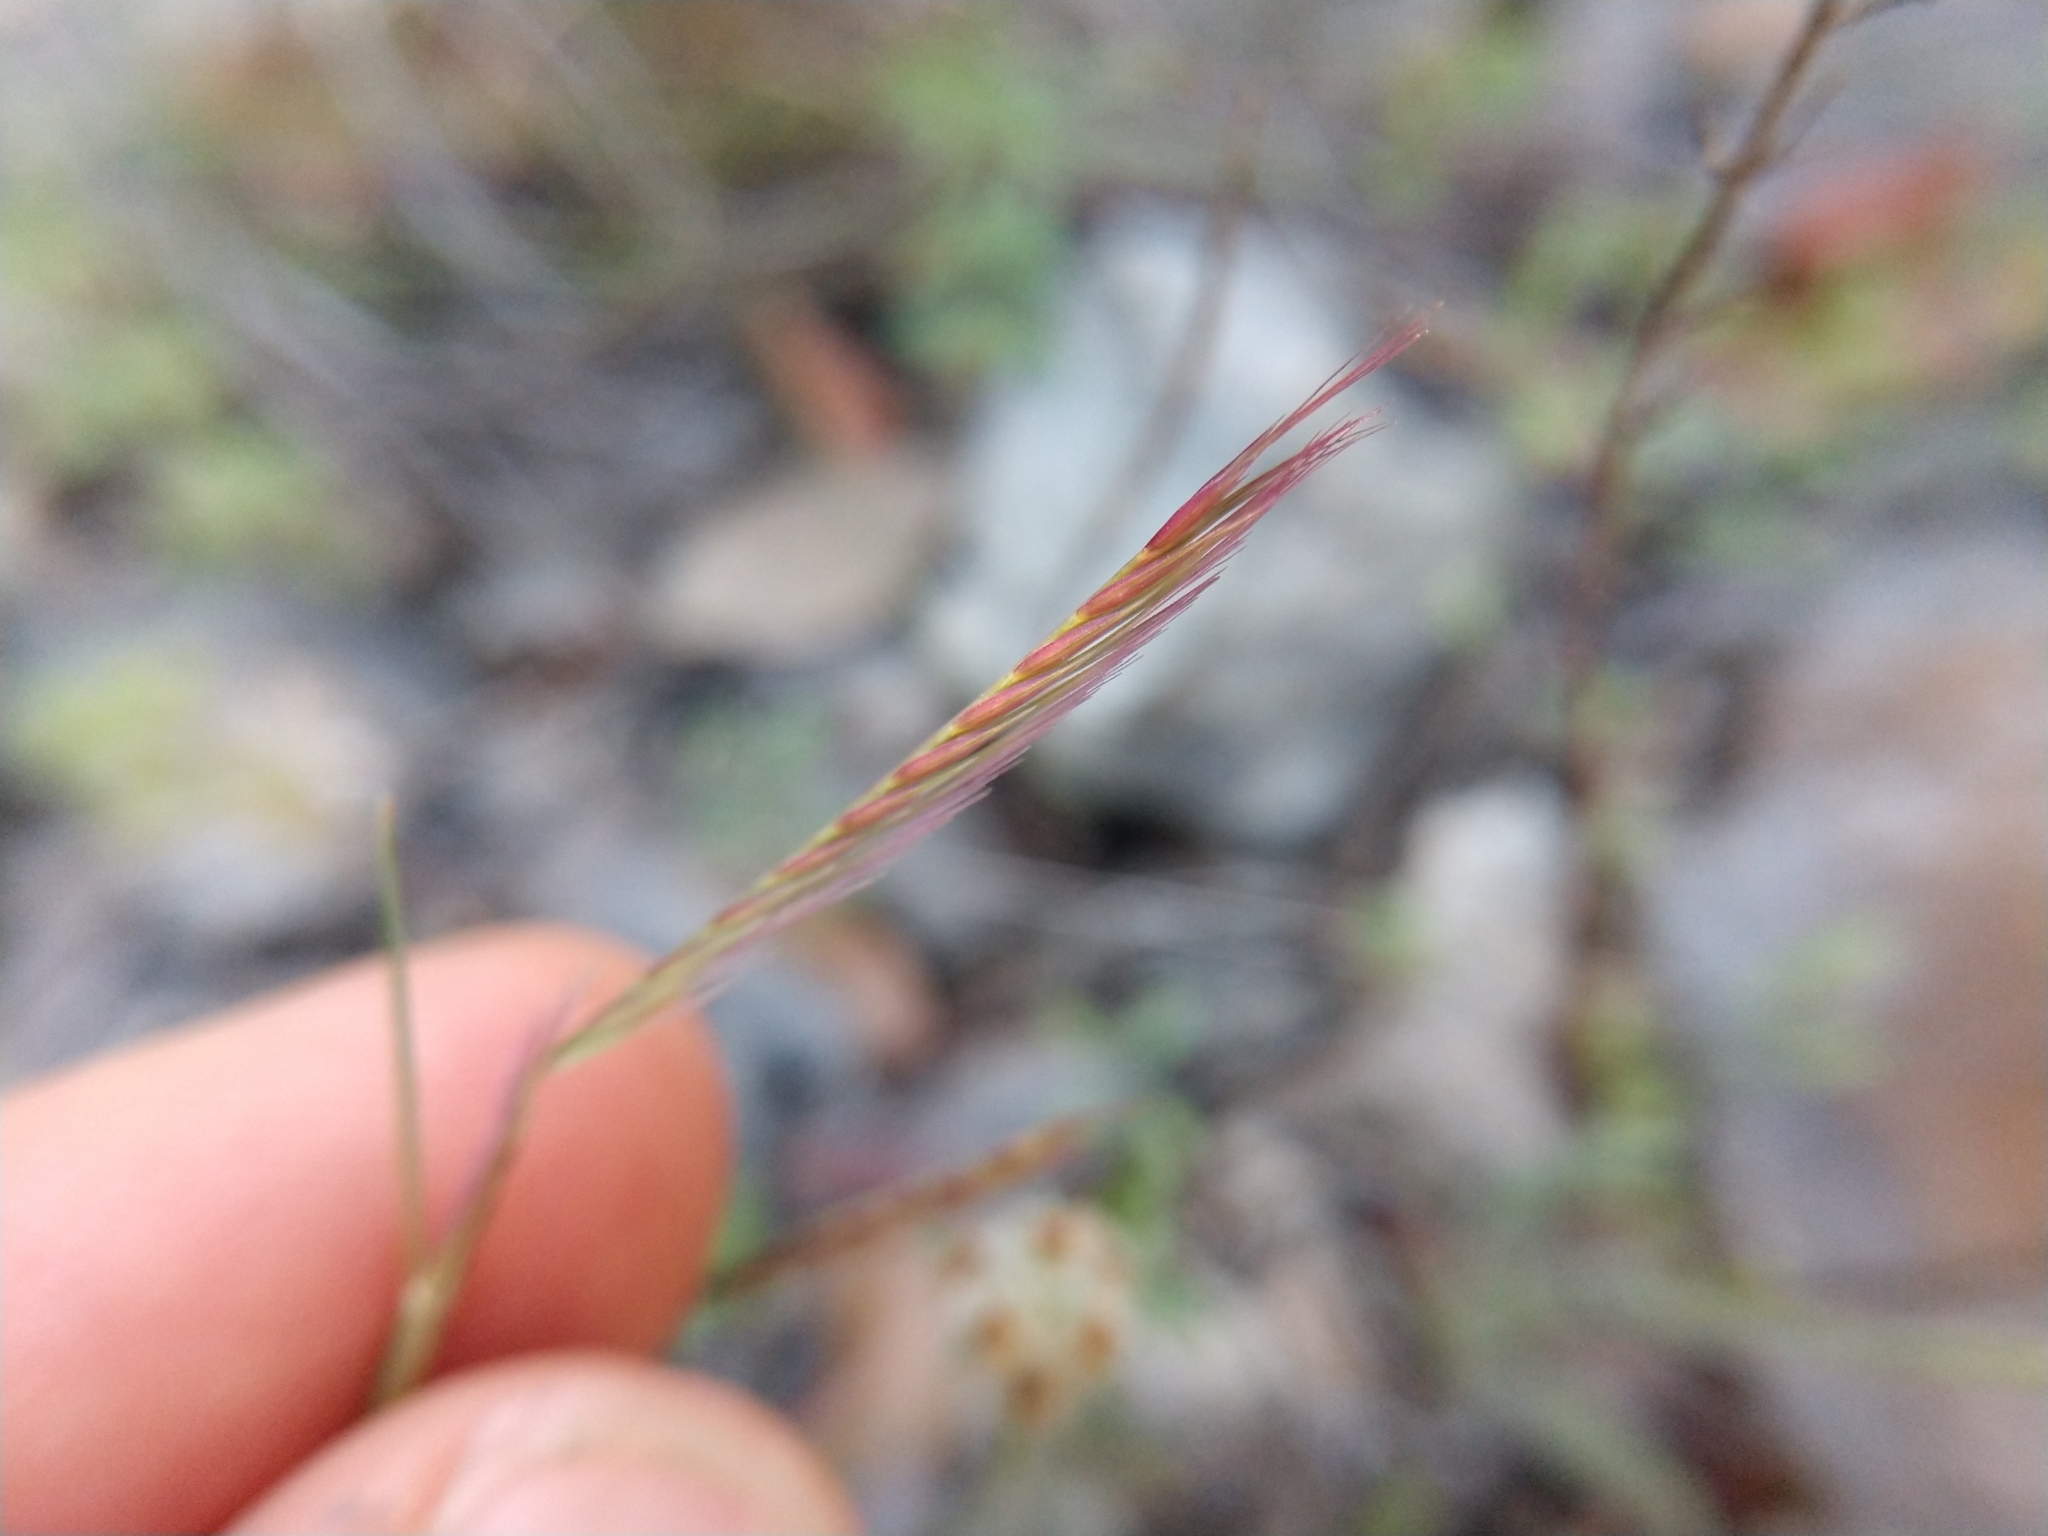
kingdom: Plantae
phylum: Tracheophyta
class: Liliopsida
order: Poales
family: Poaceae
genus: Bouteloua
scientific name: Bouteloua trifida
